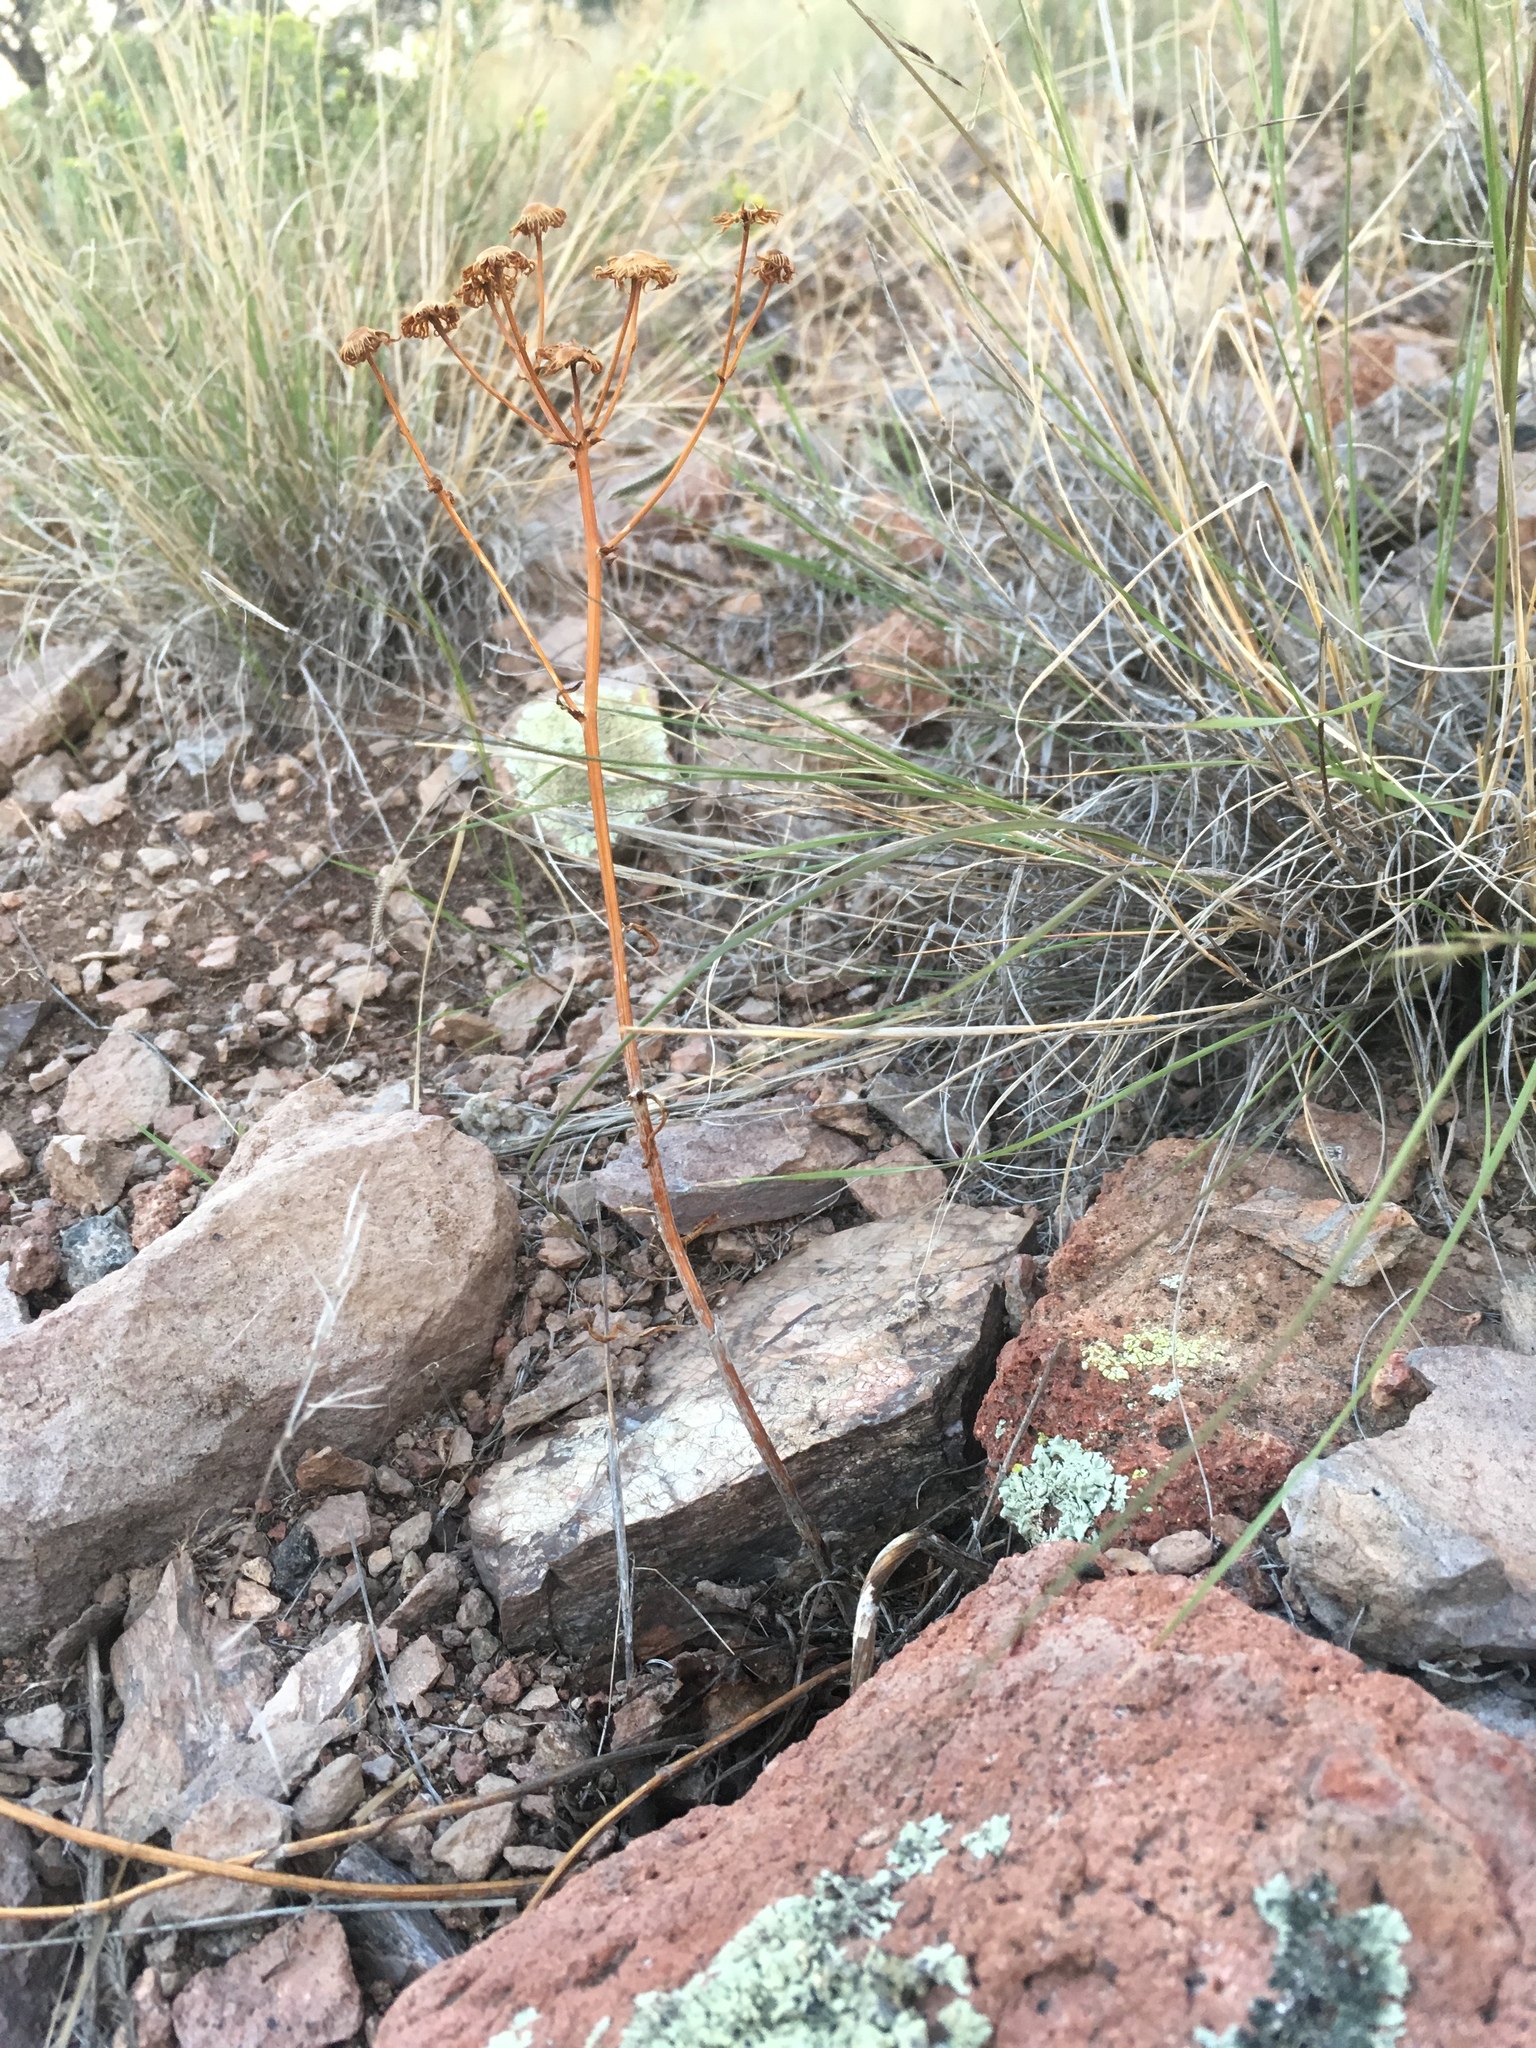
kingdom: Plantae
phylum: Tracheophyta
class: Magnoliopsida
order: Asterales
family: Asteraceae
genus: Packera
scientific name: Packera neomexicana
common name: New mexico butterweed
